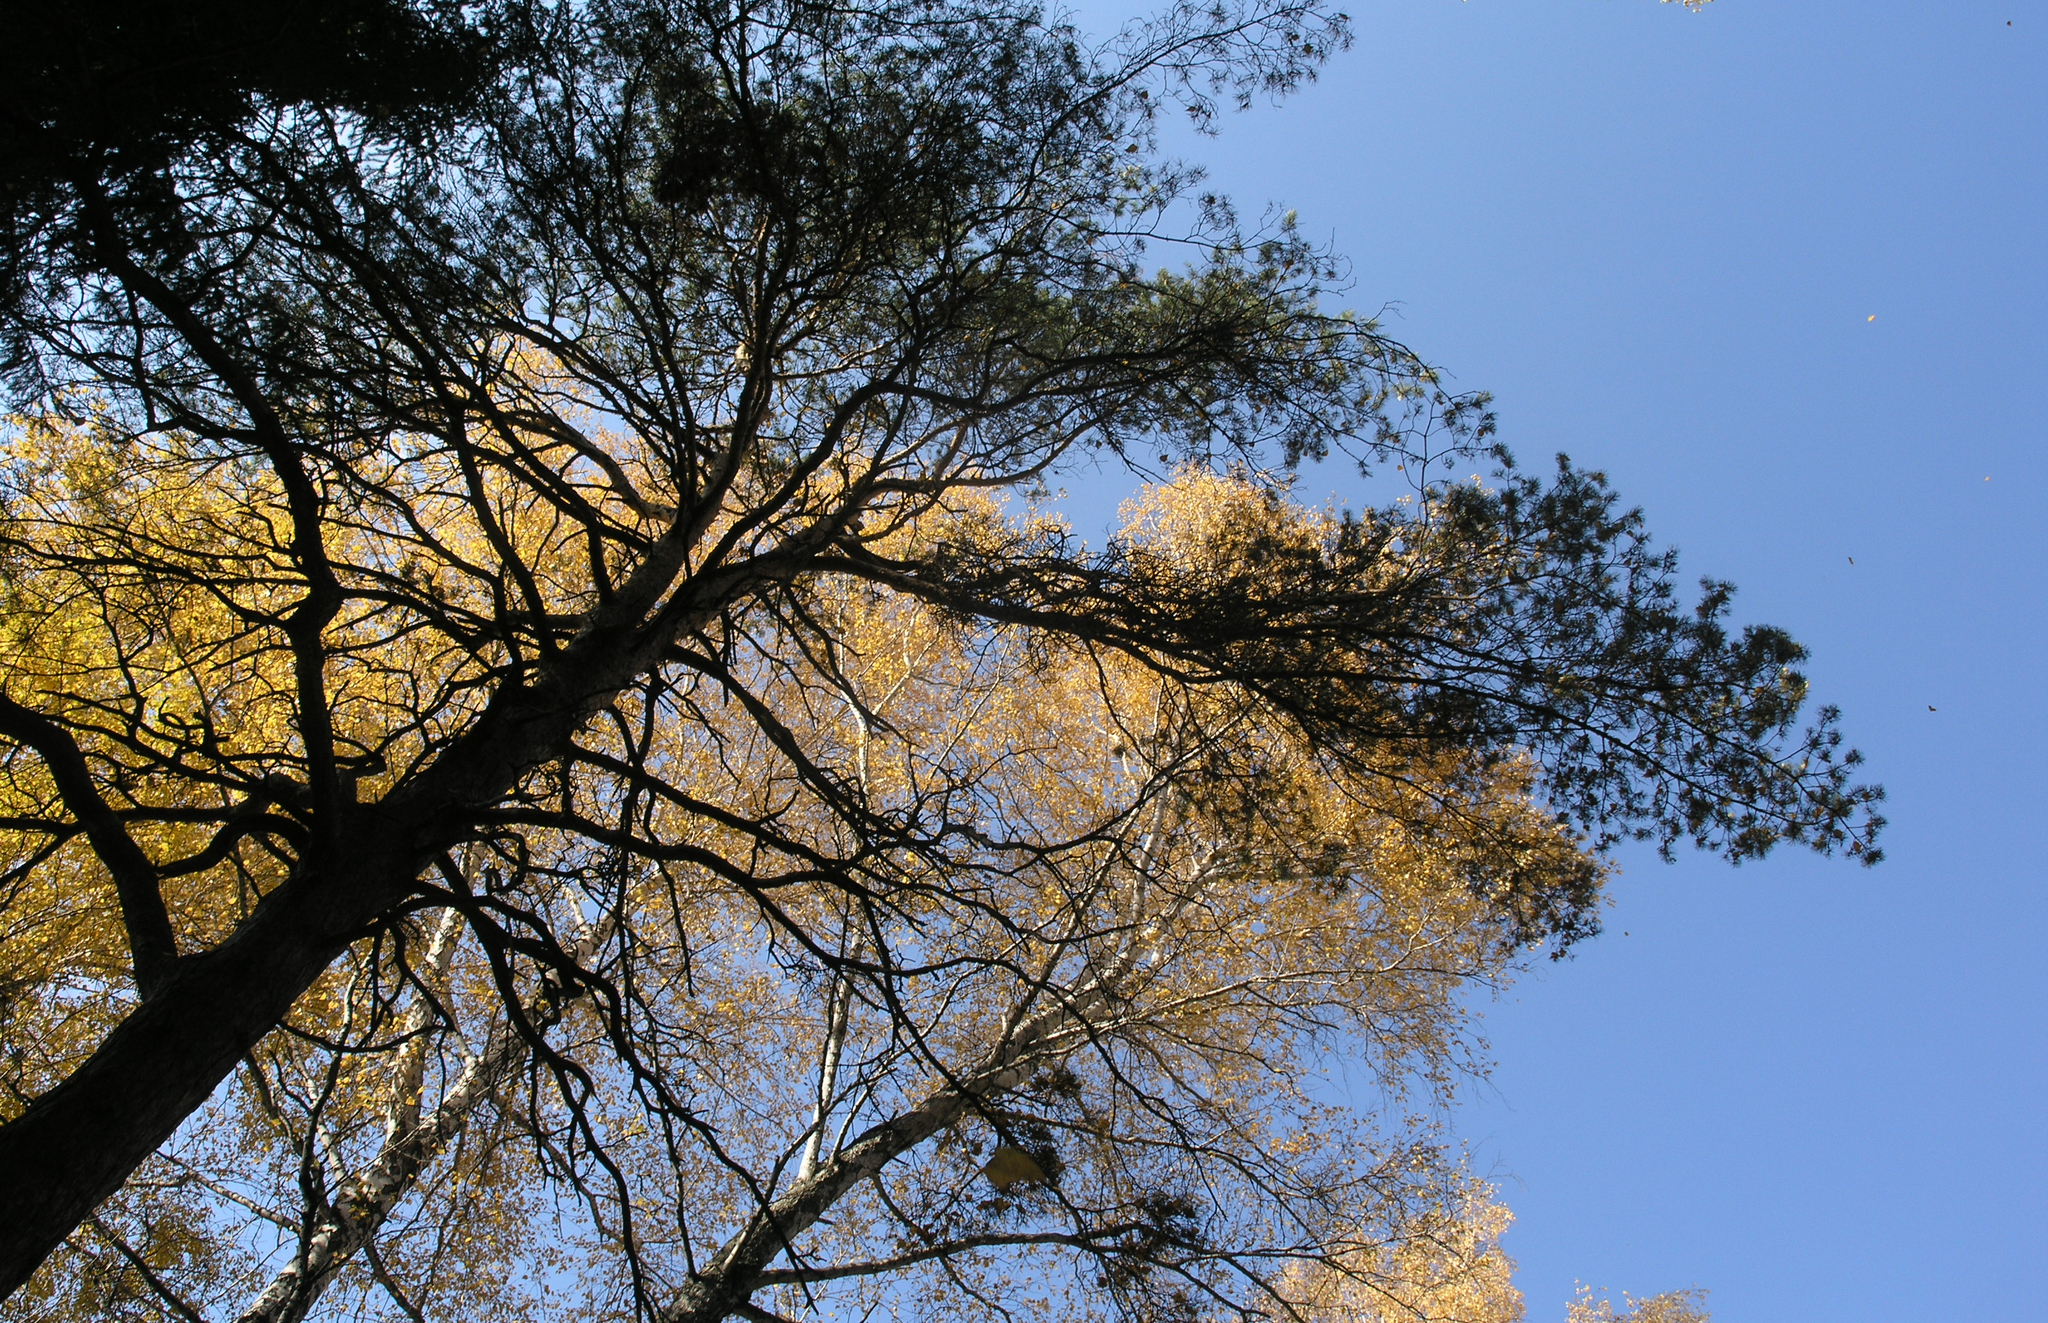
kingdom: Plantae
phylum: Tracheophyta
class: Pinopsida
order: Pinales
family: Pinaceae
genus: Pinus
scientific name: Pinus sylvestris
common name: Scots pine
